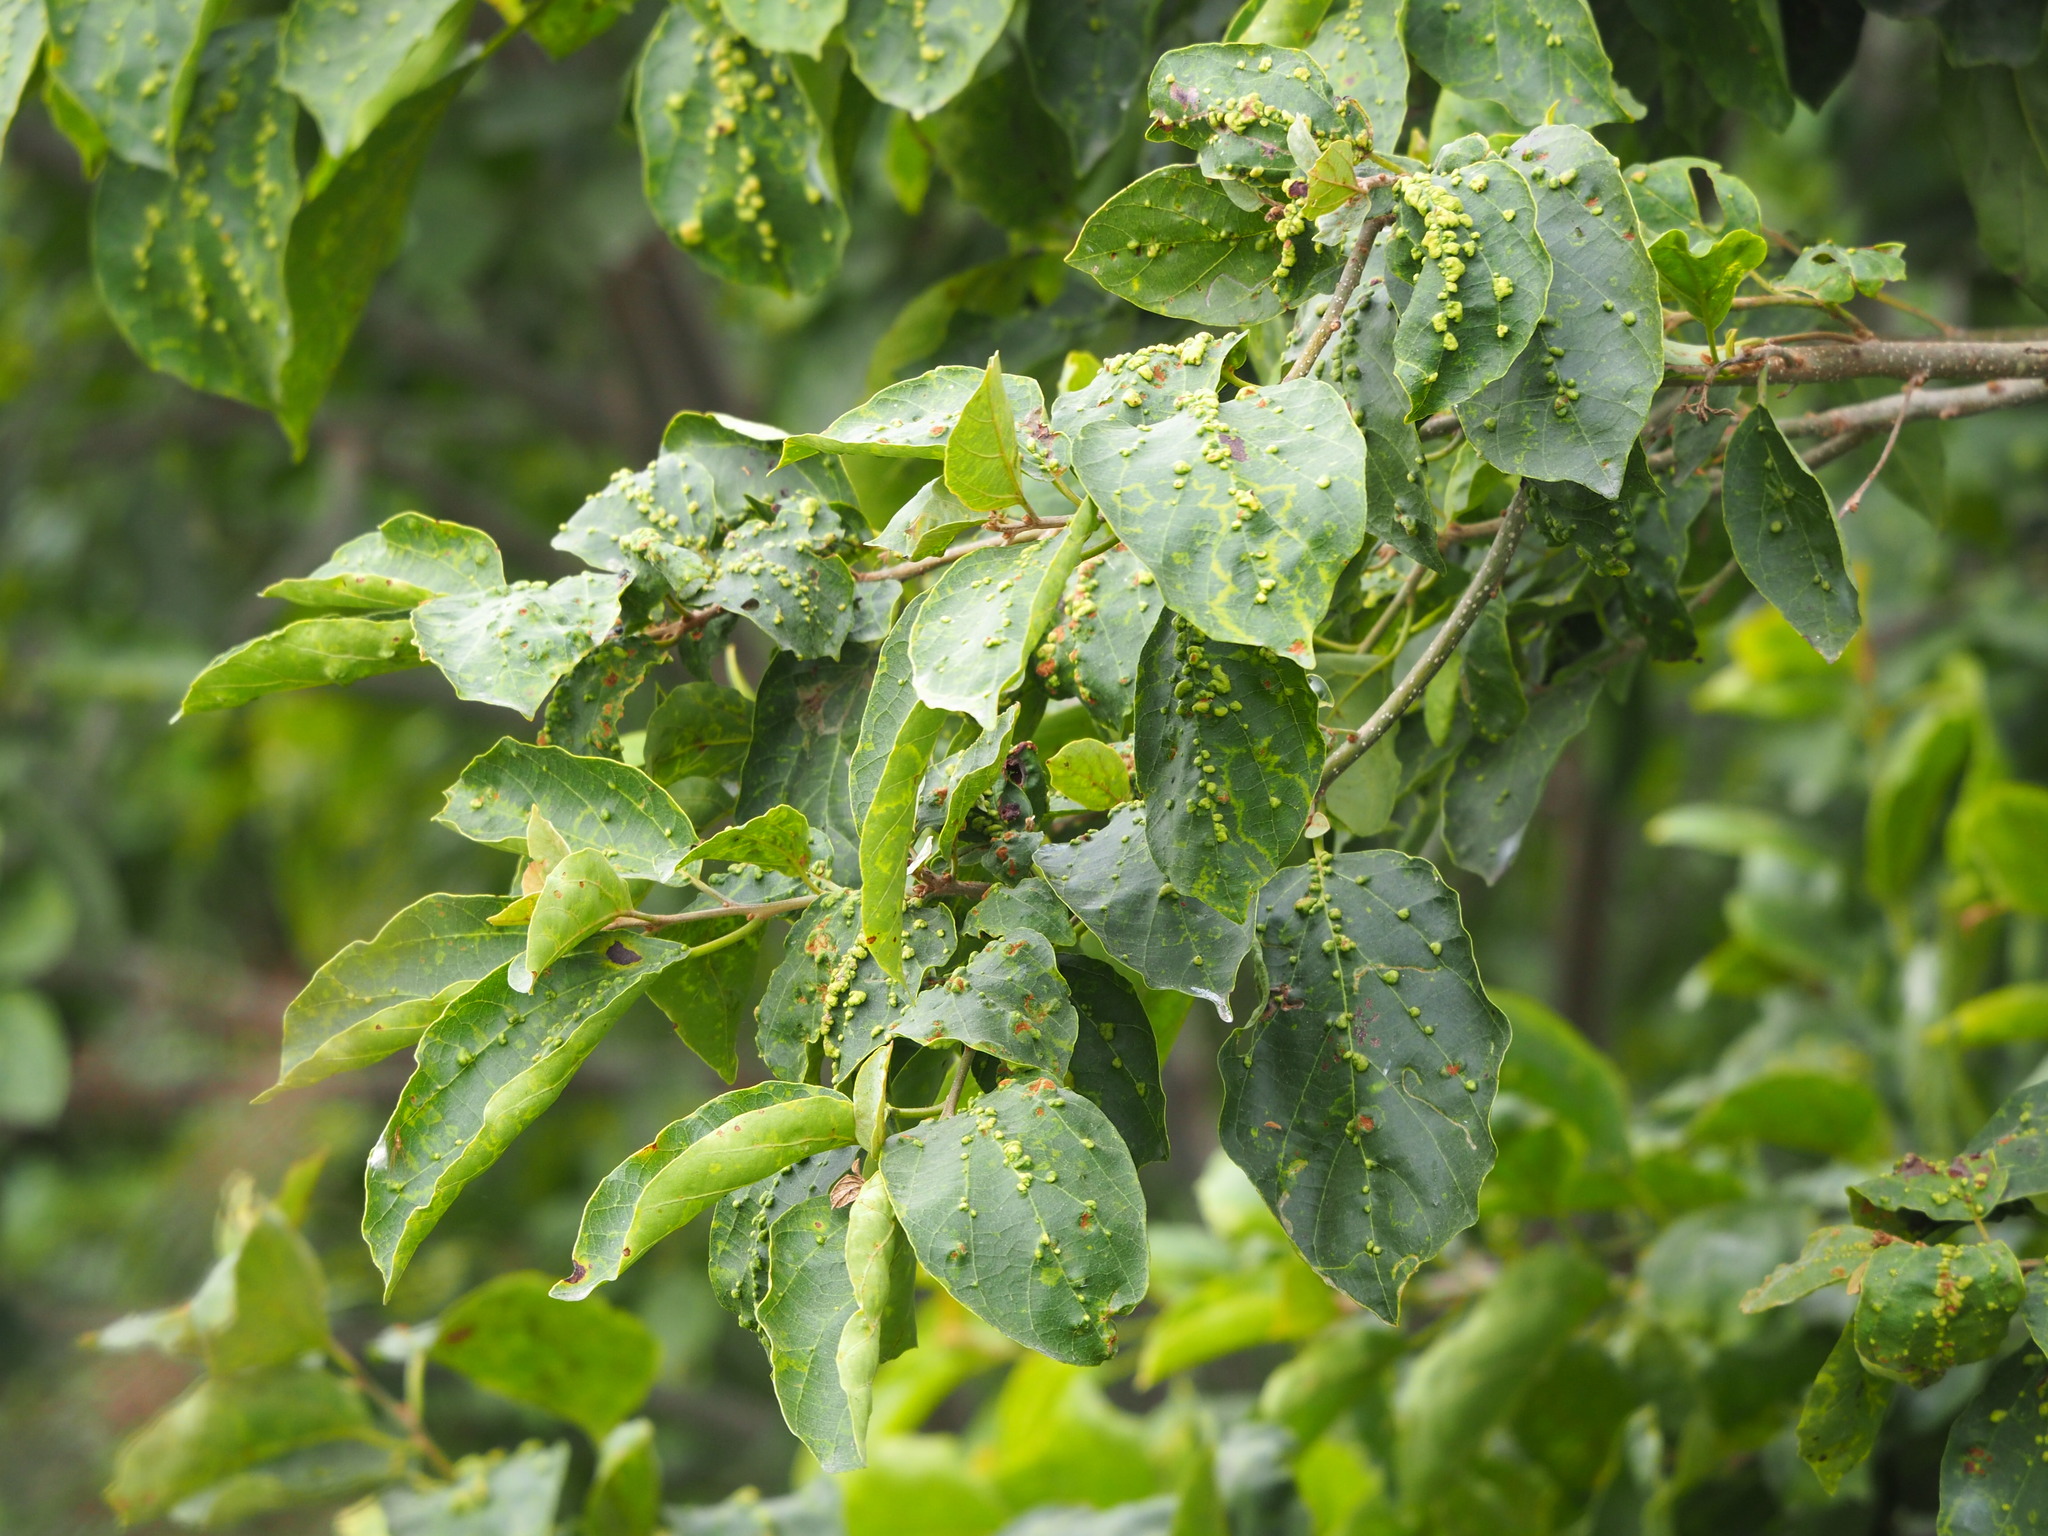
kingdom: Plantae
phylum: Tracheophyta
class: Magnoliopsida
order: Boraginales
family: Cordiaceae
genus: Cordia
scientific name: Cordia dichotoma
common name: Fragrant manjack
